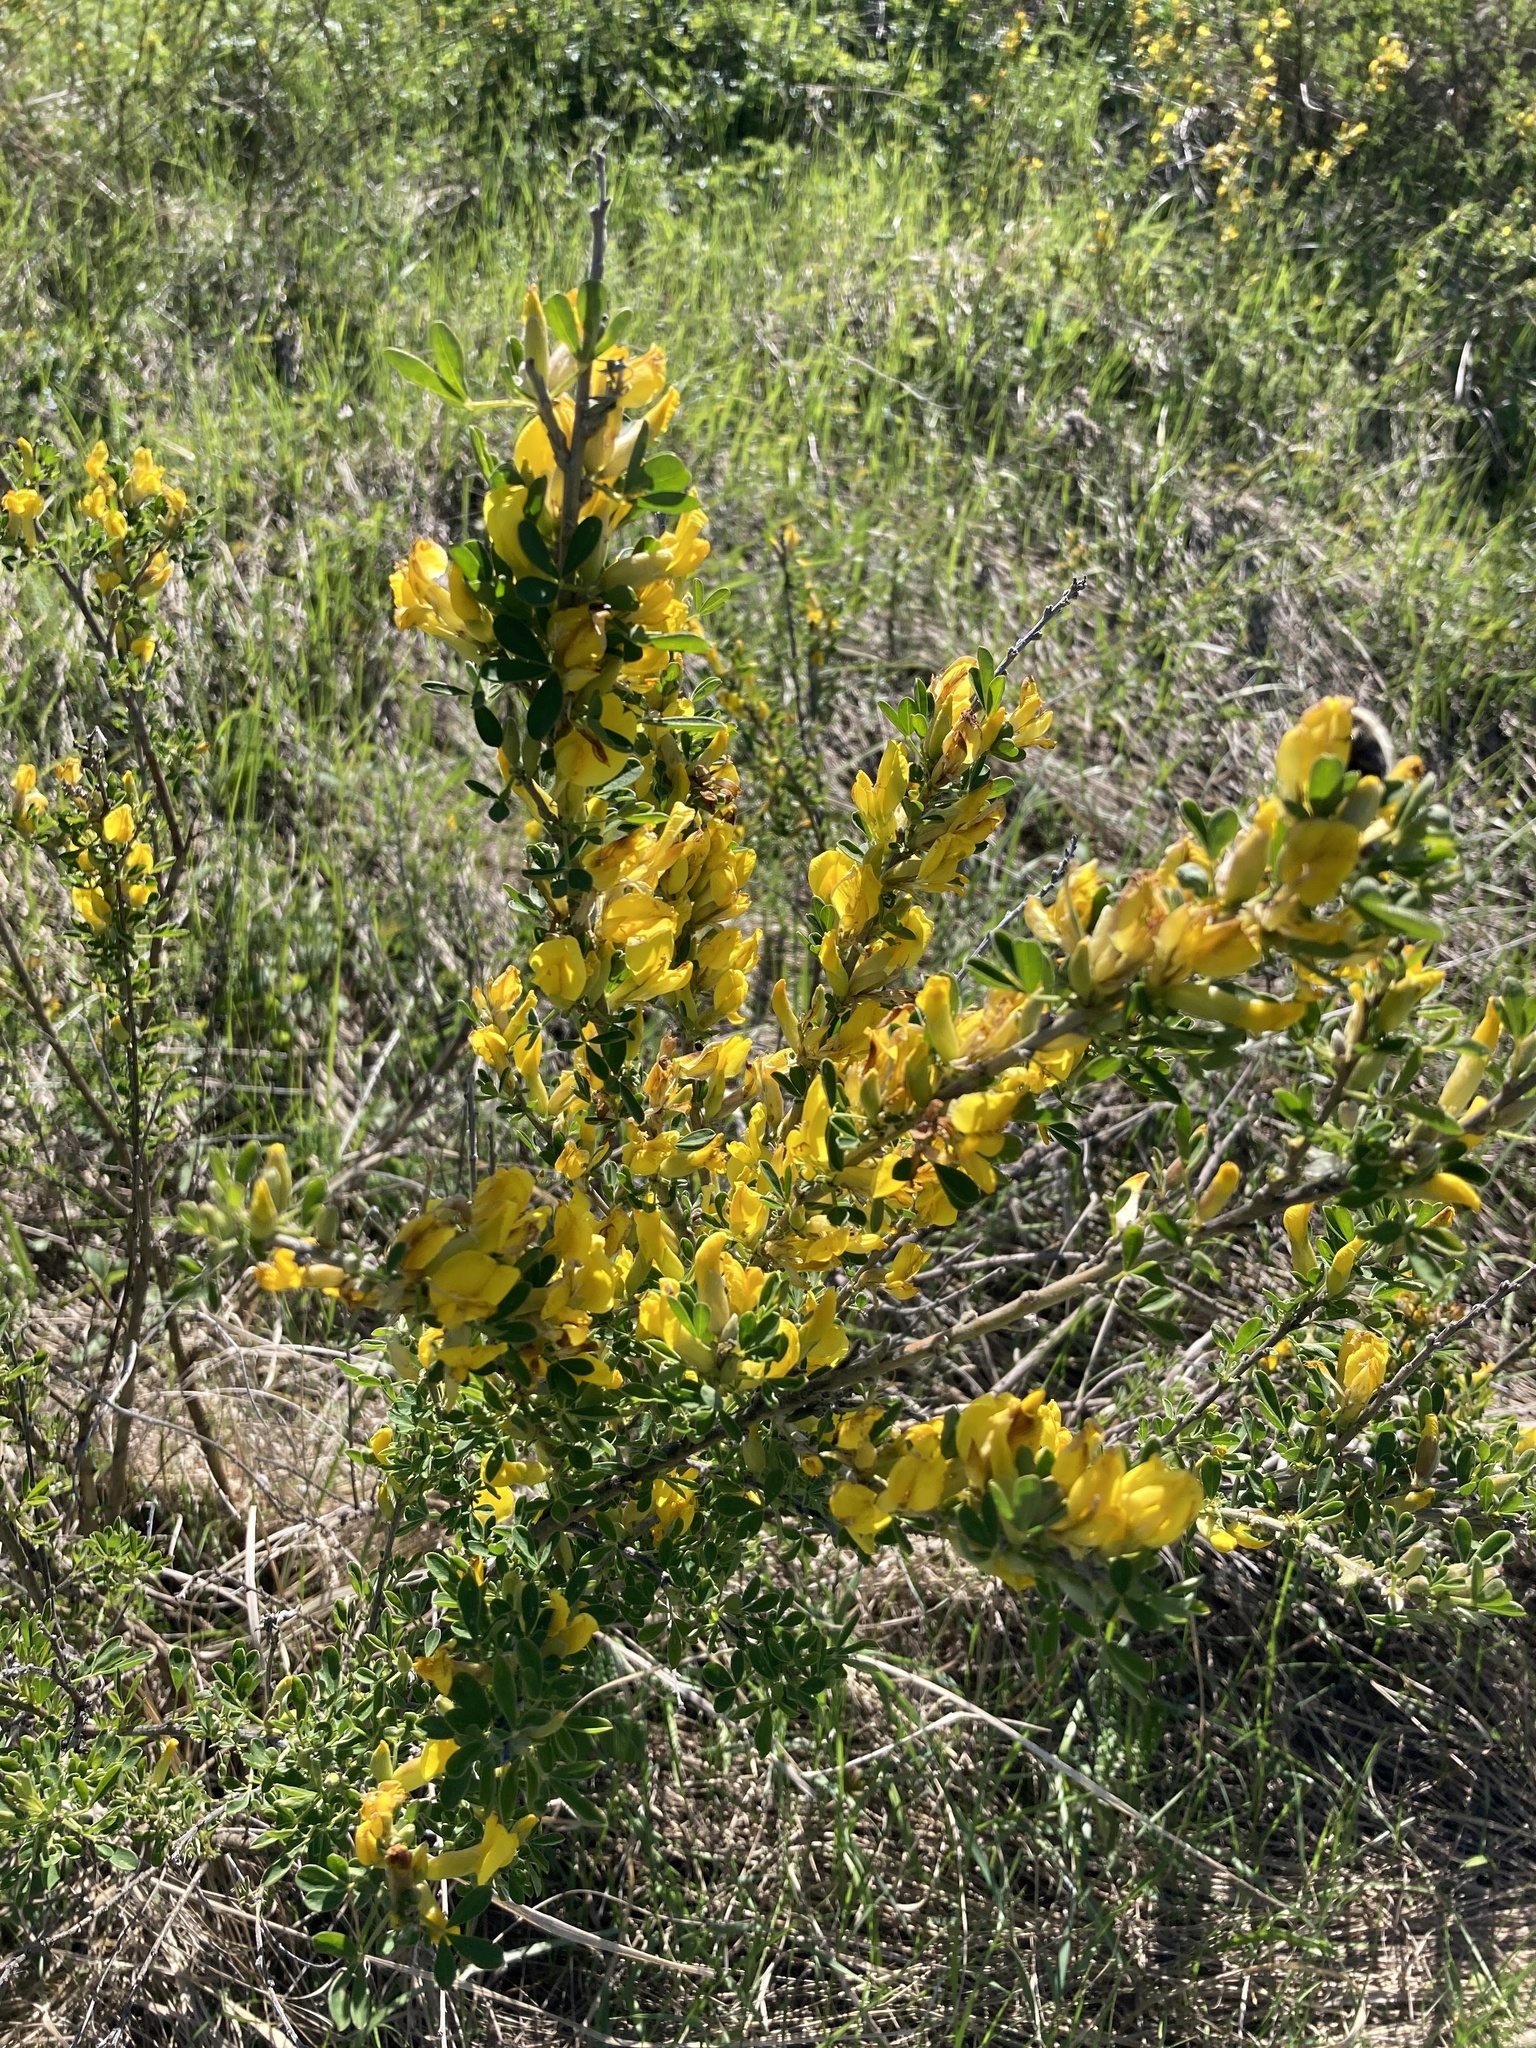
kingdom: Plantae
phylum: Tracheophyta
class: Magnoliopsida
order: Fabales
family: Fabaceae
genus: Chamaecytisus
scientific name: Chamaecytisus ruthenicus
